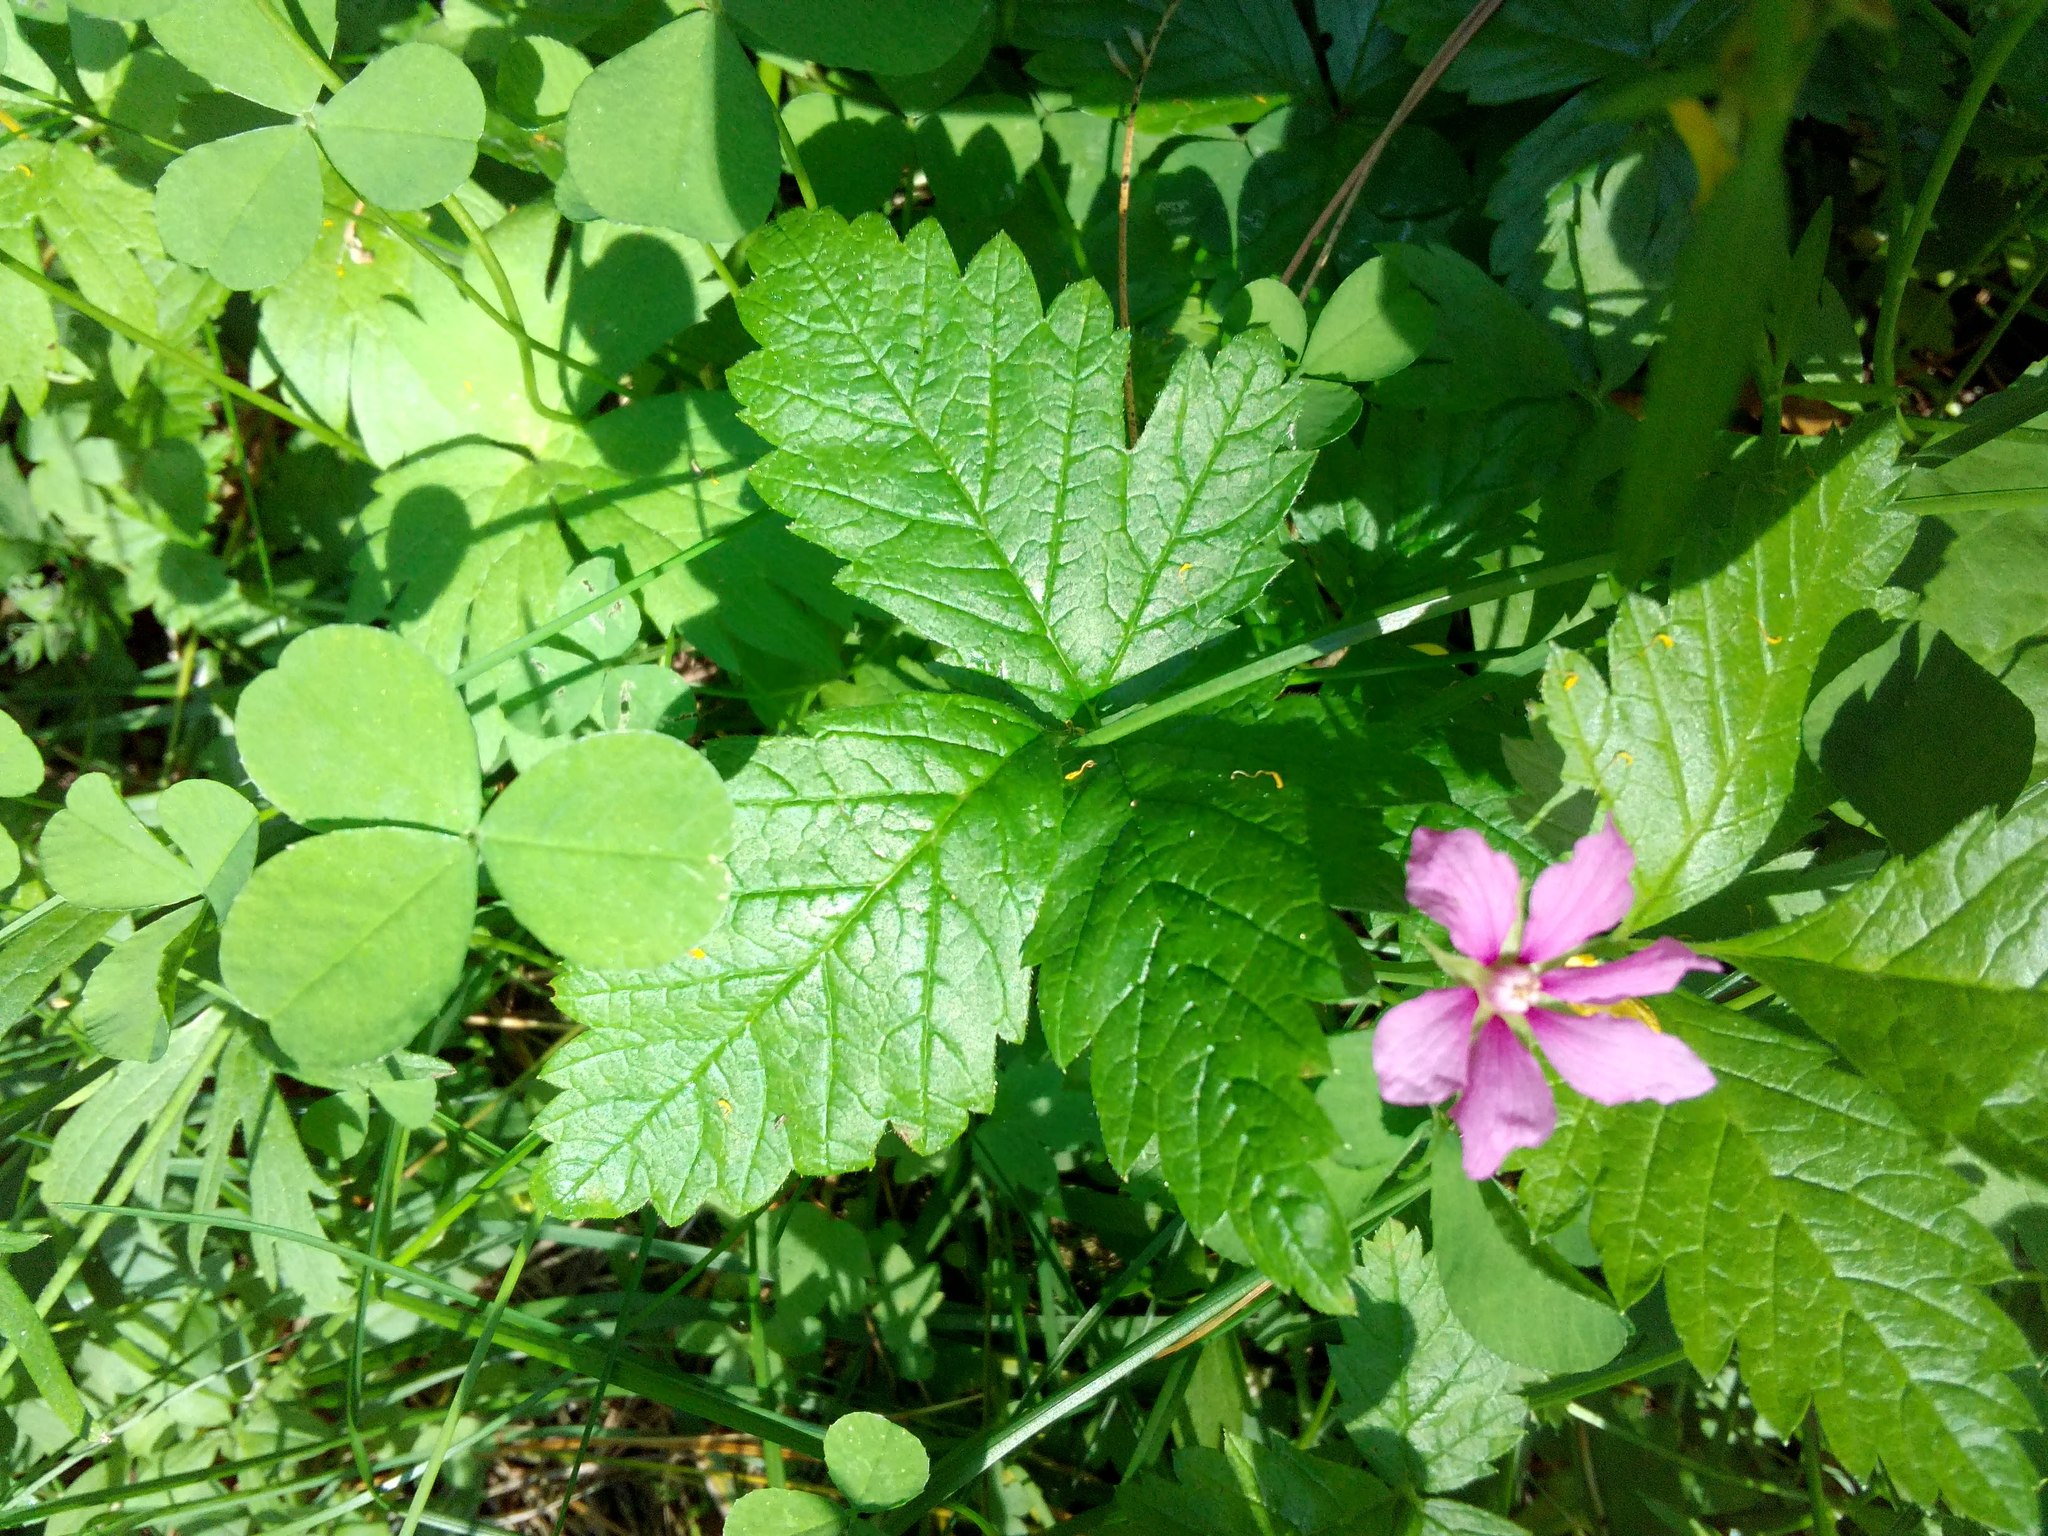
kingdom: Plantae
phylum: Tracheophyta
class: Magnoliopsida
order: Rosales
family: Rosaceae
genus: Rubus
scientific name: Rubus arcticus
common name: Arctic bramble
